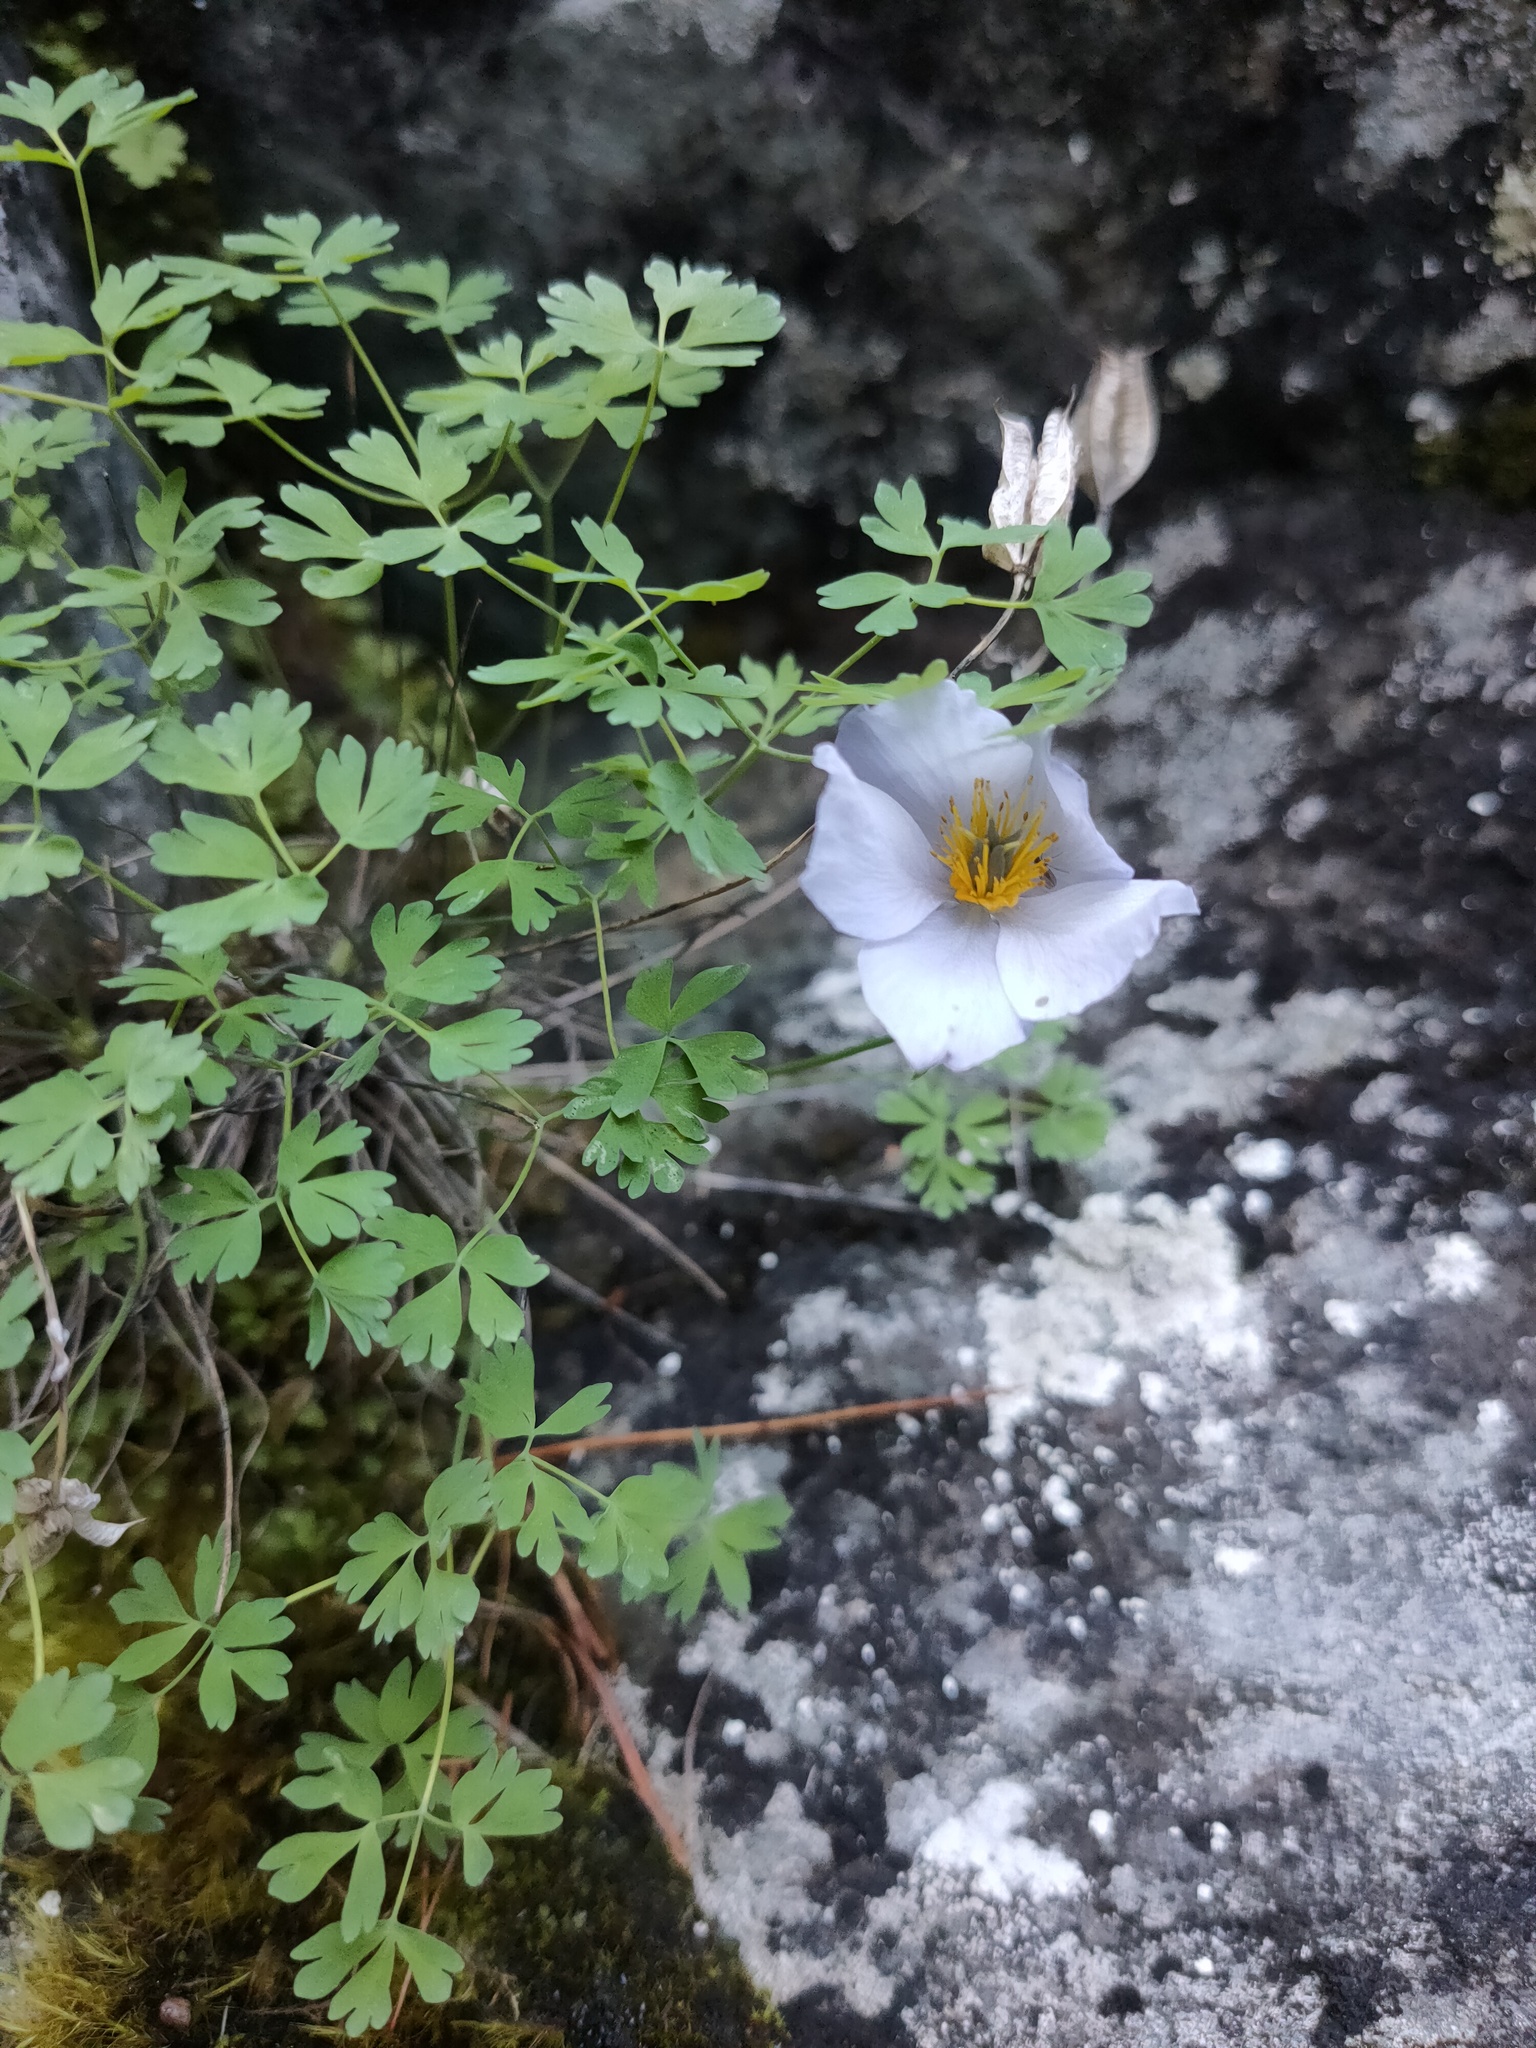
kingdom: Plantae
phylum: Tracheophyta
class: Magnoliopsida
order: Ranunculales
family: Ranunculaceae
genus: Paraquilegia
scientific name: Paraquilegia microphylla
